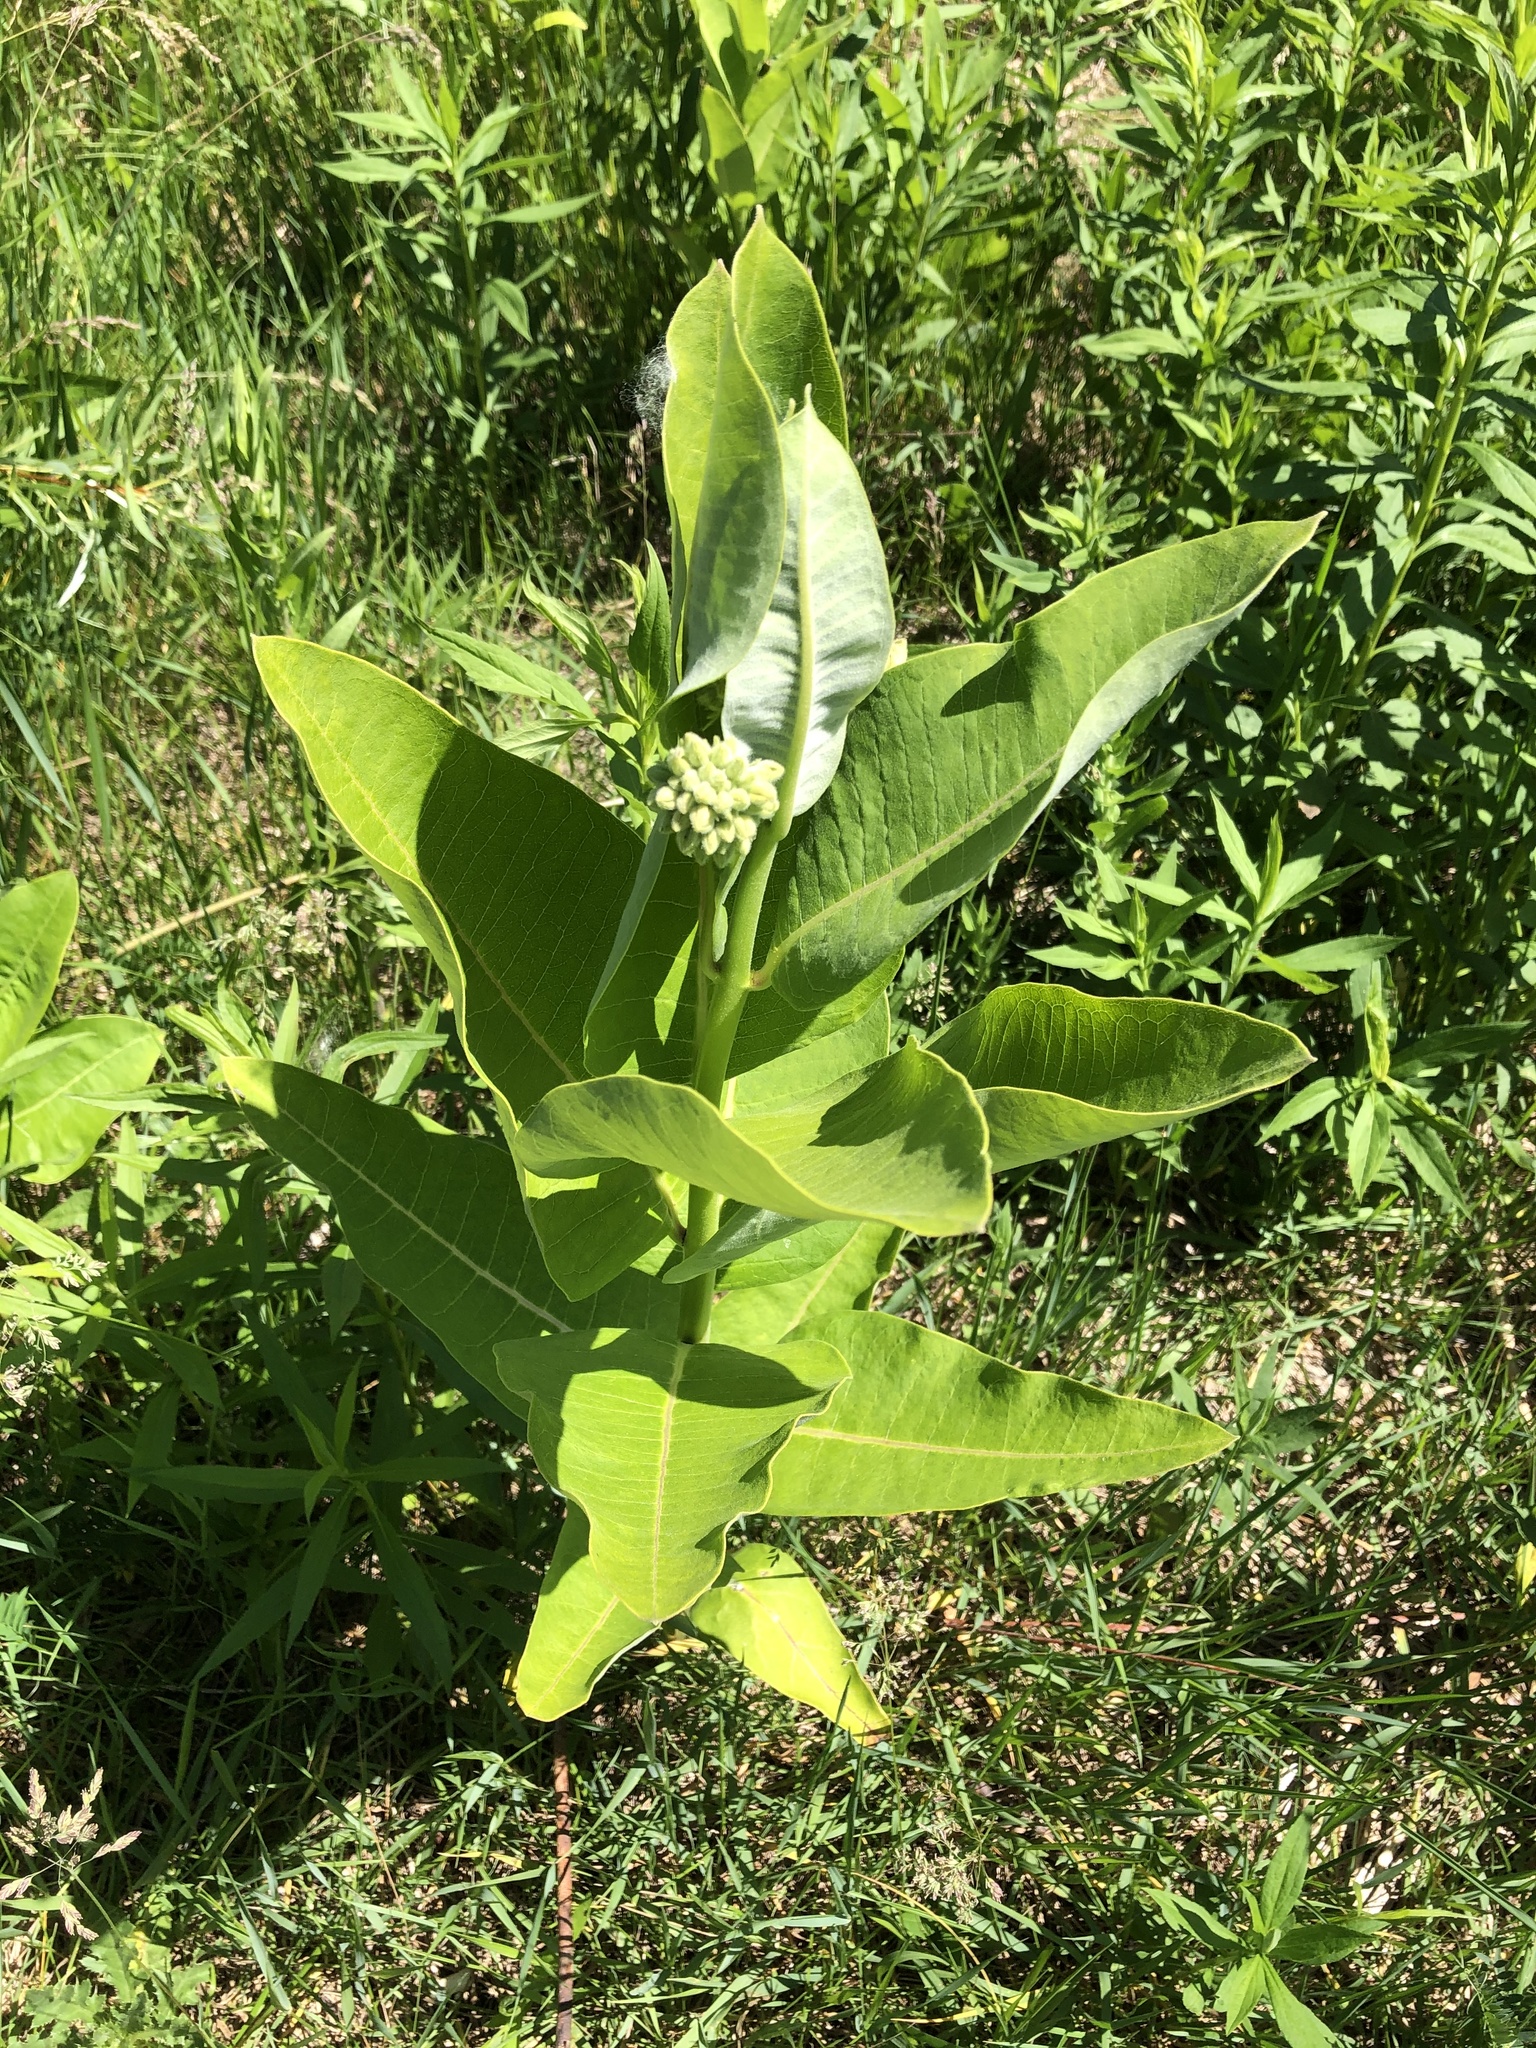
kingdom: Plantae
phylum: Tracheophyta
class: Magnoliopsida
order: Gentianales
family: Apocynaceae
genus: Asclepias
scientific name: Asclepias syriaca
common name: Common milkweed
